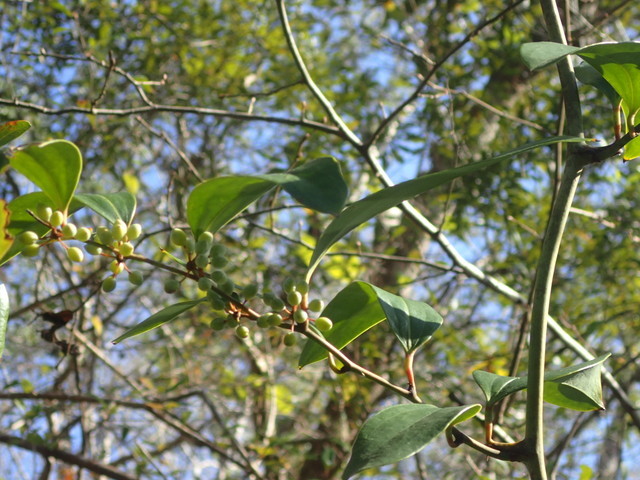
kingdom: Plantae
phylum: Tracheophyta
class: Liliopsida
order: Liliales
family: Smilacaceae
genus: Smilax
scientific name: Smilax laurifolia
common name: Bamboovine
